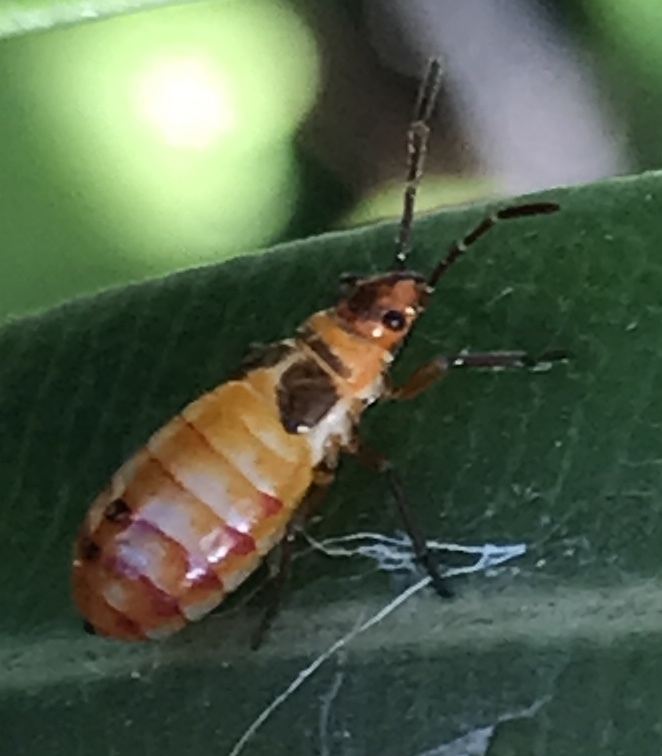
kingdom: Animalia
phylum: Arthropoda
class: Insecta
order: Hemiptera
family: Lygaeidae
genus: Oncopeltus
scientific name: Oncopeltus unifasciatellus
